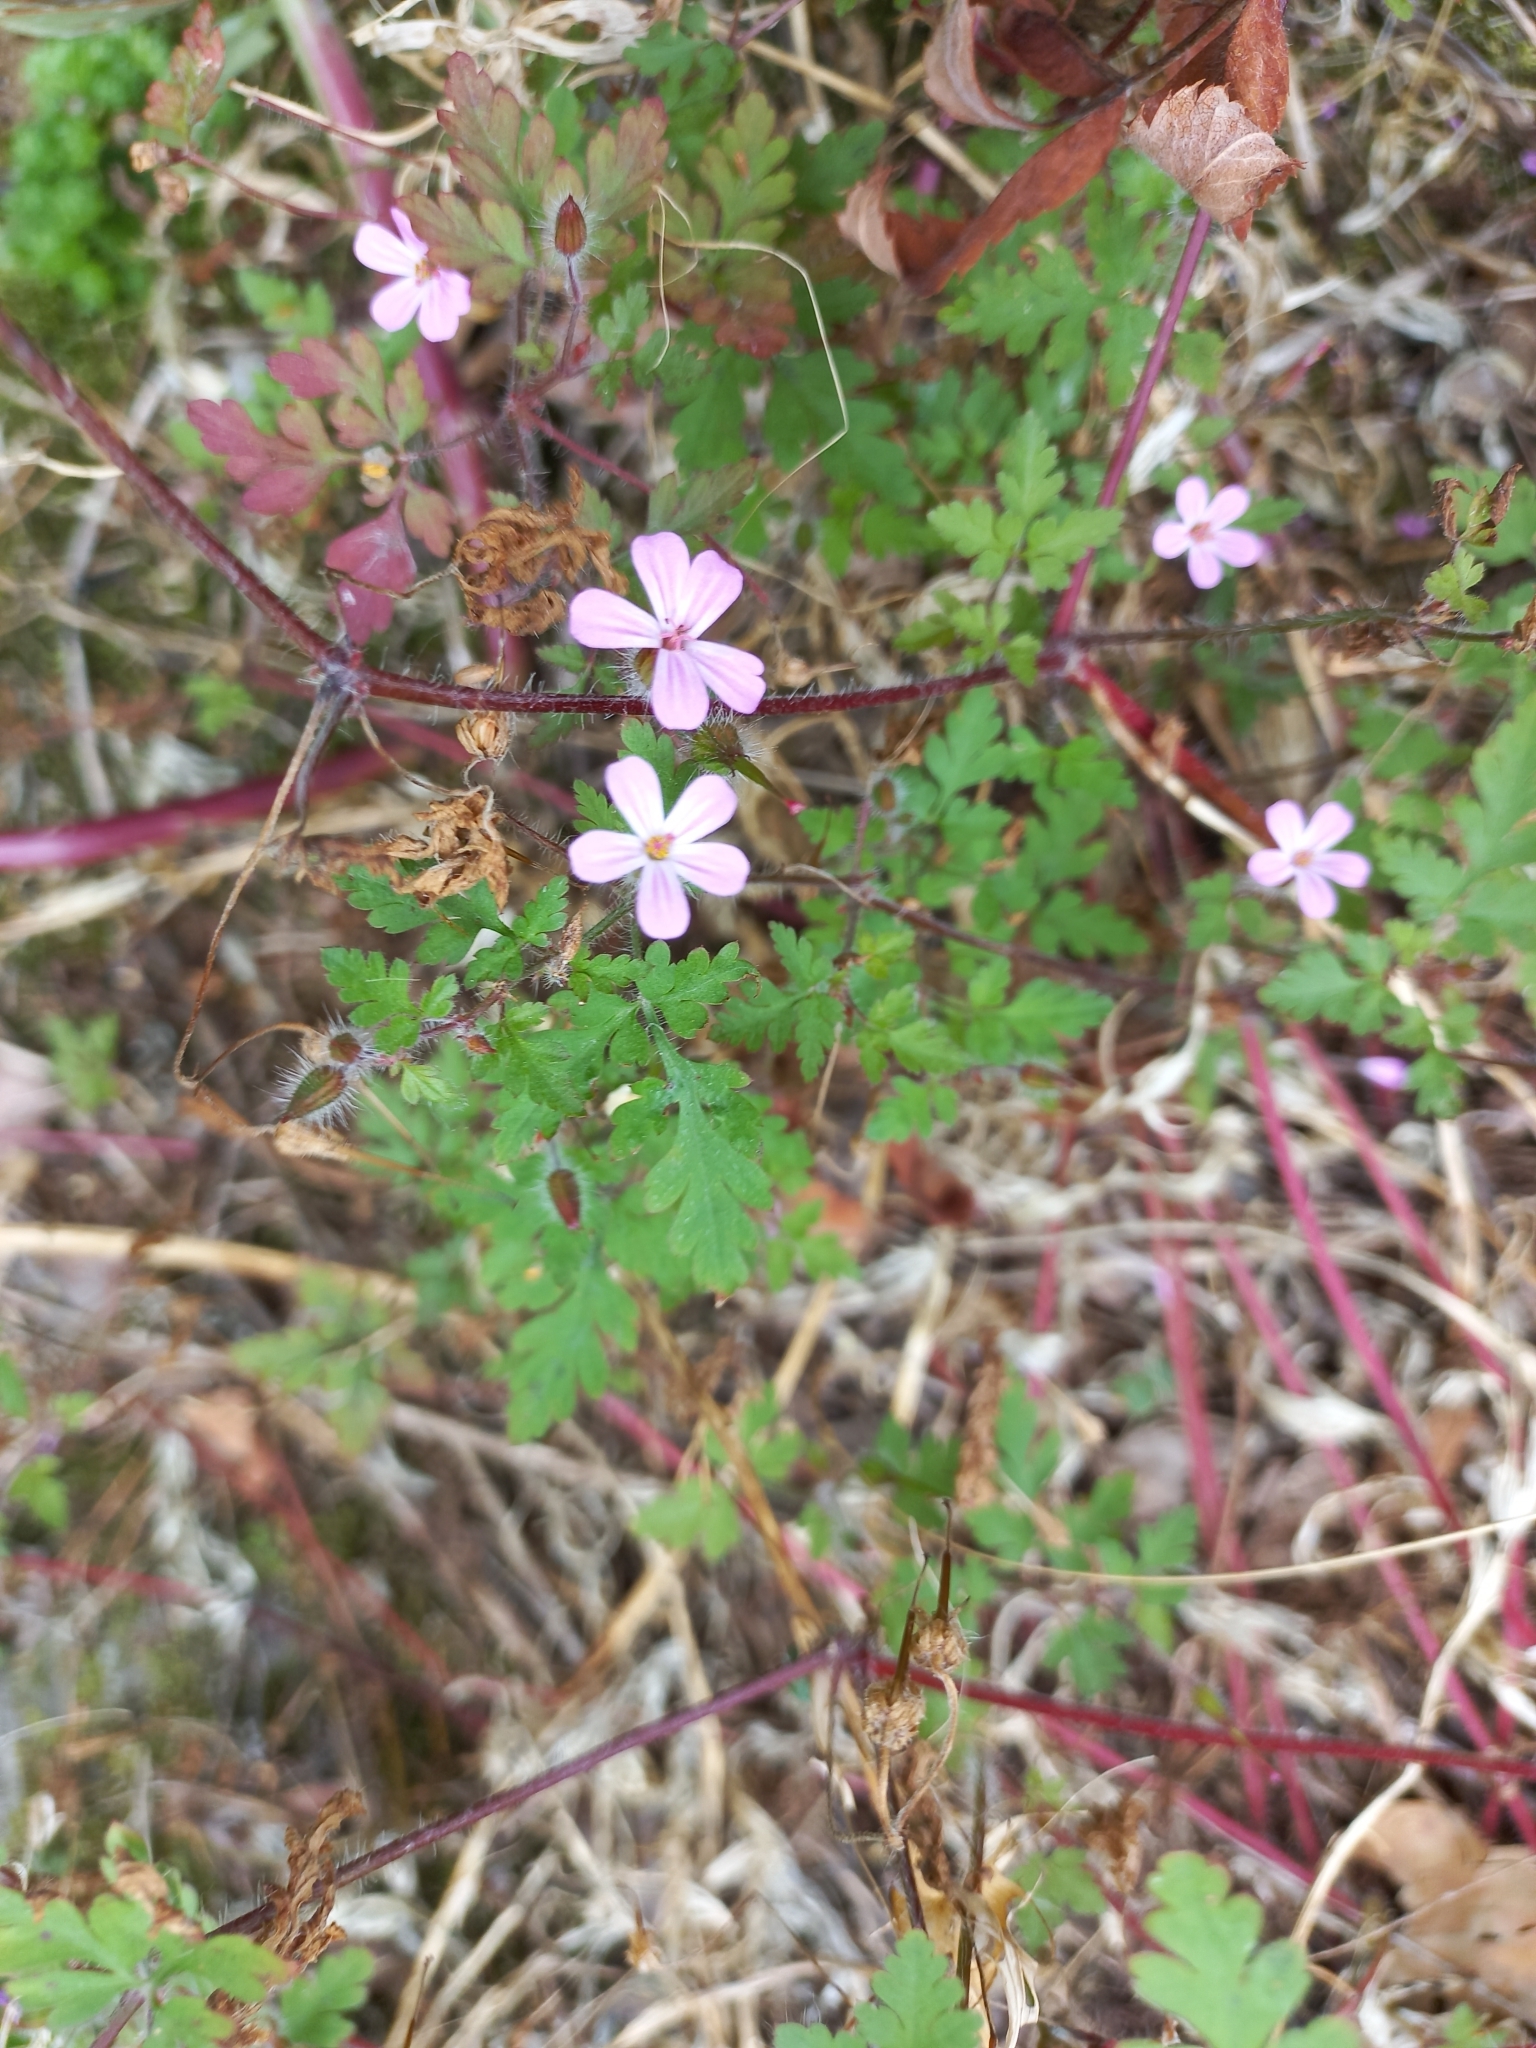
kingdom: Plantae
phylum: Tracheophyta
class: Magnoliopsida
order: Geraniales
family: Geraniaceae
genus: Geranium
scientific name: Geranium robertianum
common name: Herb-robert
